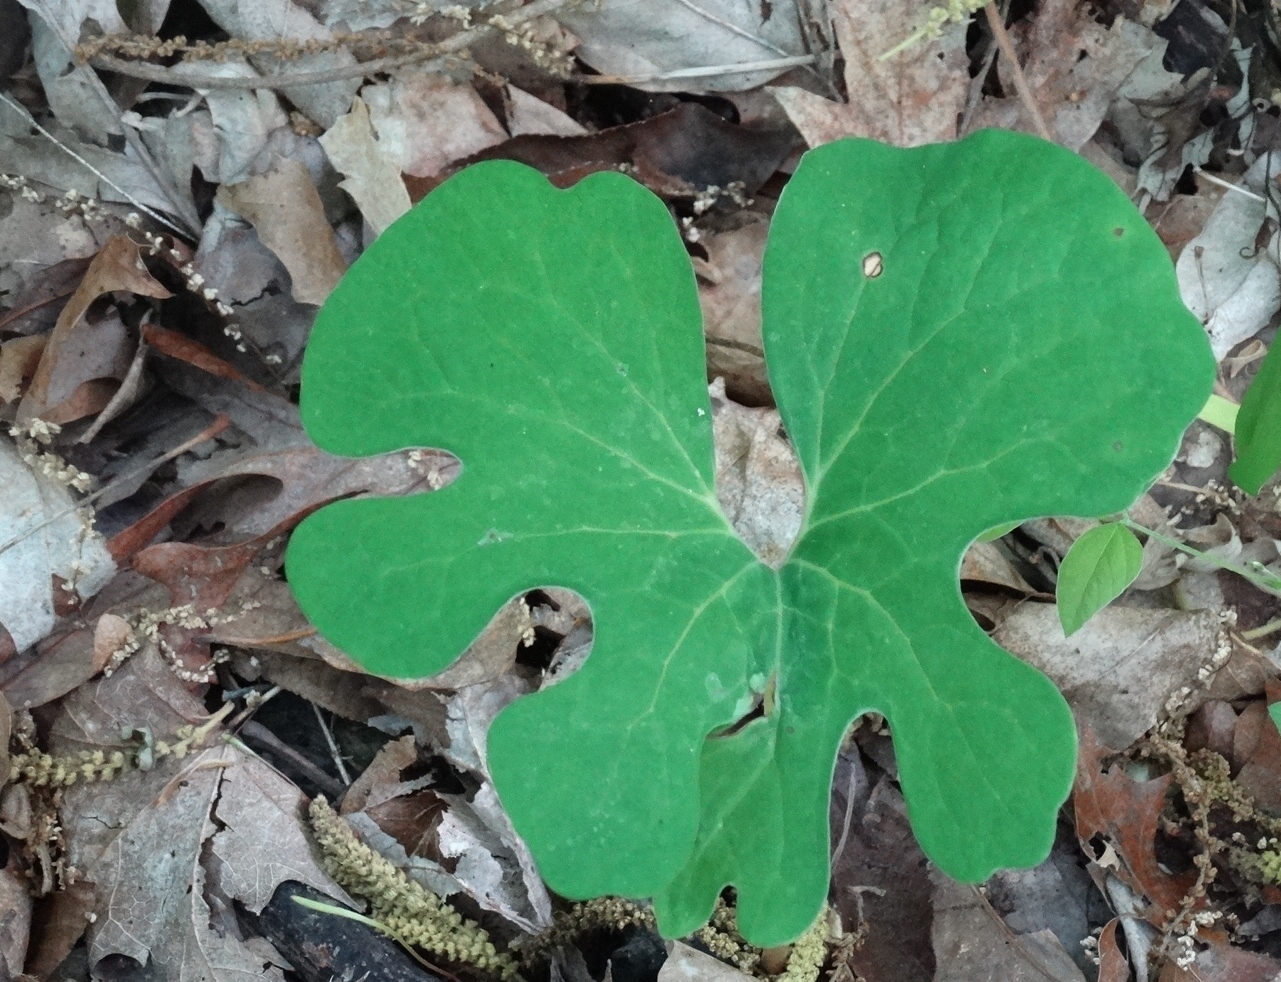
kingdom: Plantae
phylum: Tracheophyta
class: Magnoliopsida
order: Ranunculales
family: Papaveraceae
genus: Sanguinaria
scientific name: Sanguinaria canadensis
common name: Bloodroot
